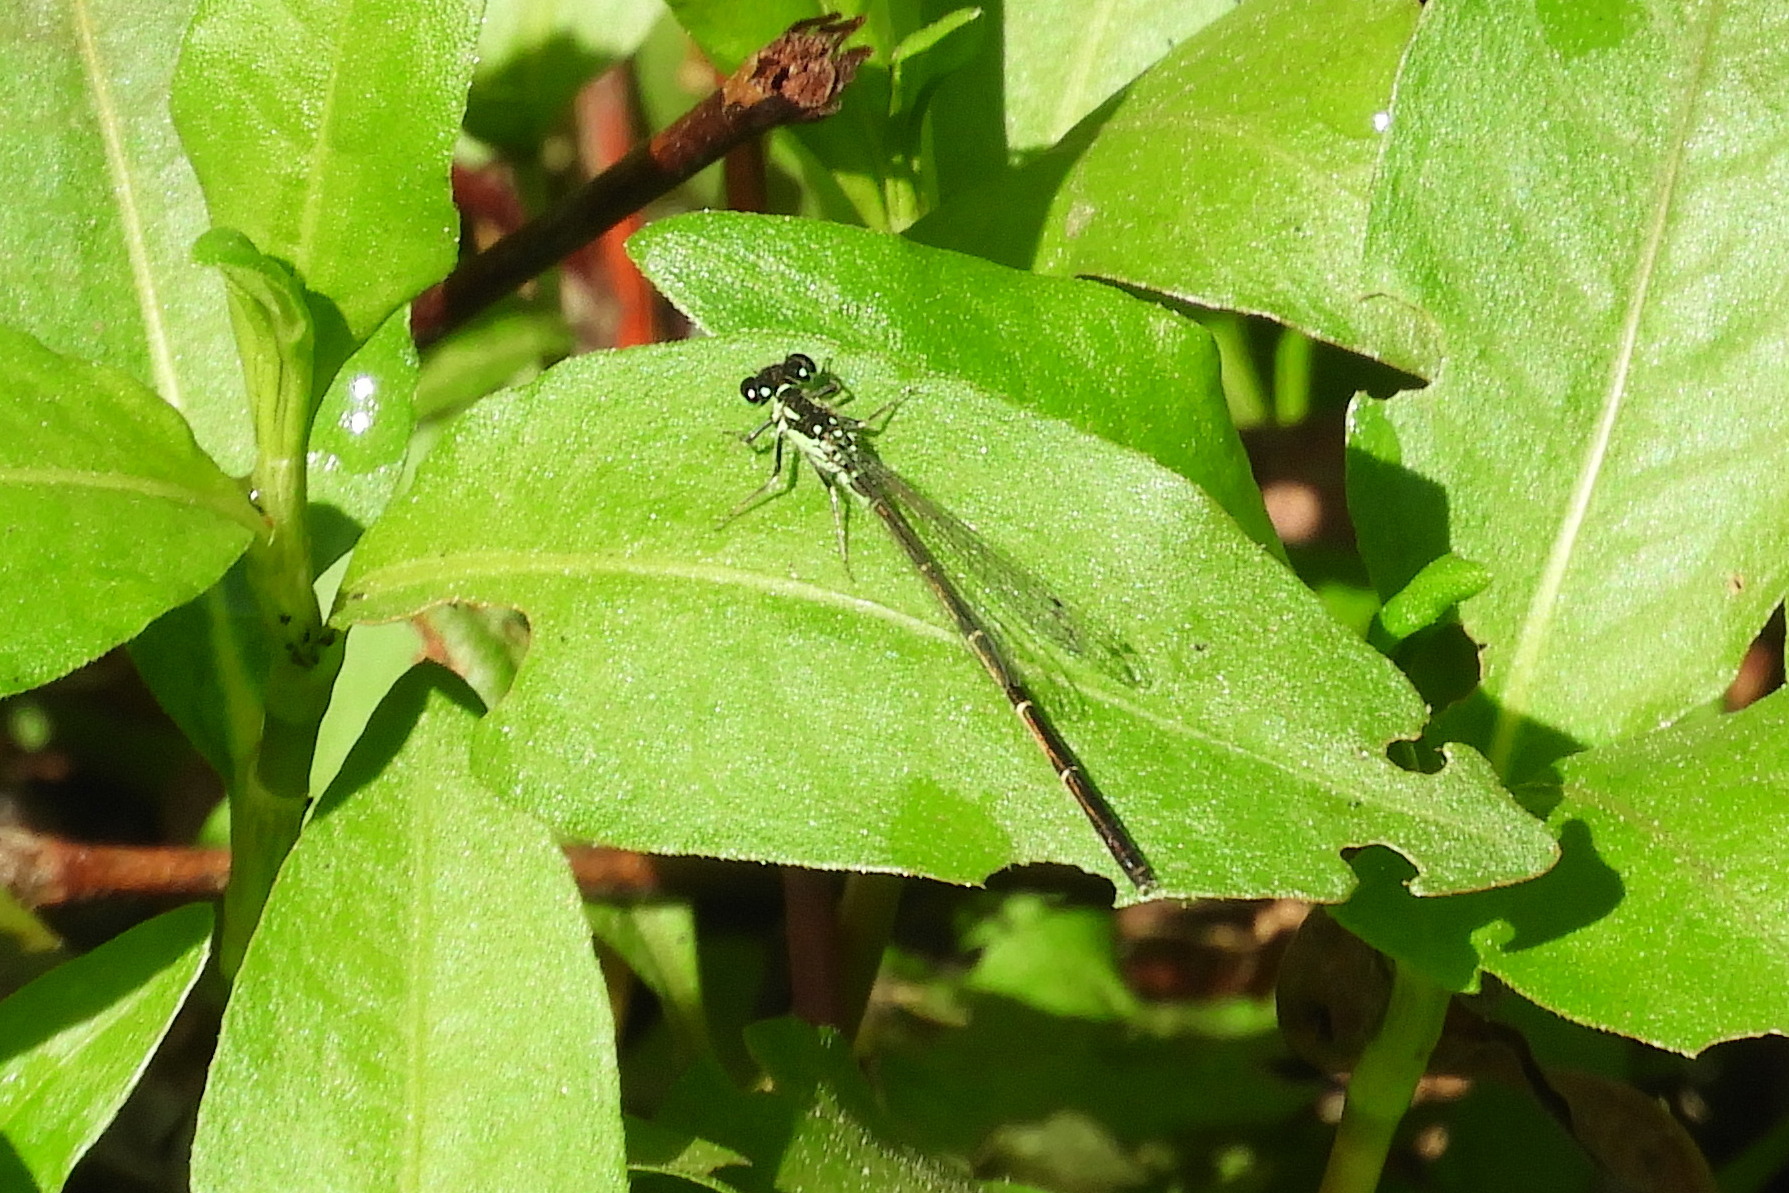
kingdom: Animalia
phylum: Arthropoda
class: Insecta
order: Odonata
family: Coenagrionidae
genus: Ischnura
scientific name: Ischnura posita
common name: Fragile forktail
